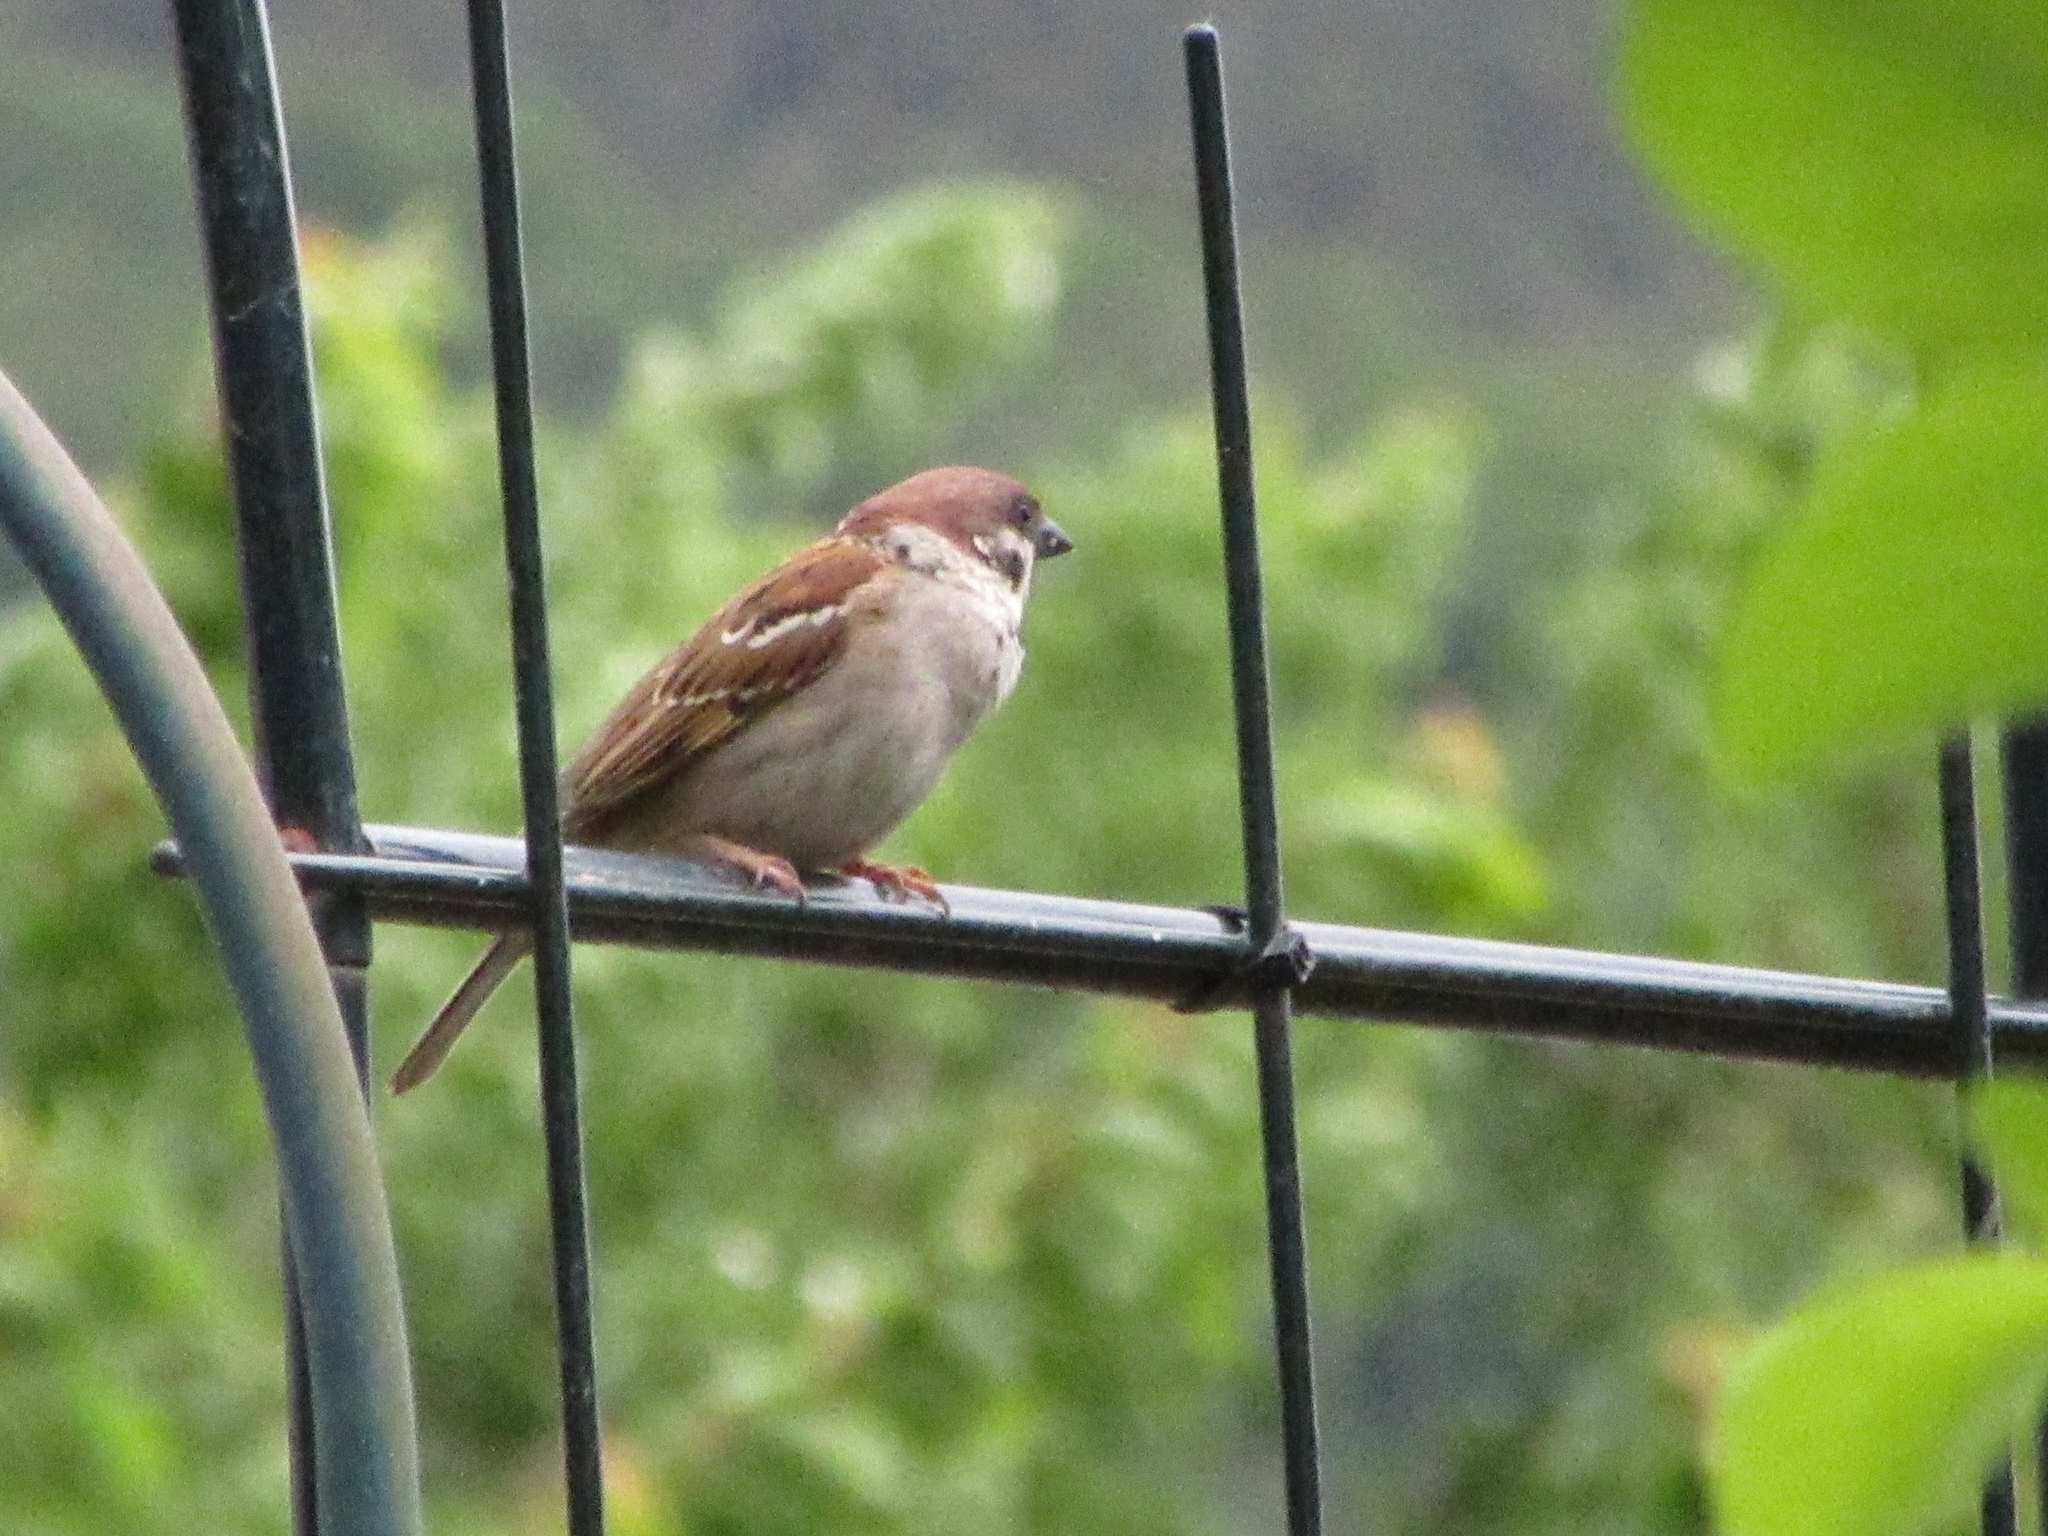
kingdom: Animalia
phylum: Chordata
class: Aves
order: Passeriformes
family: Passeridae
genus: Passer
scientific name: Passer montanus
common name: Eurasian tree sparrow
